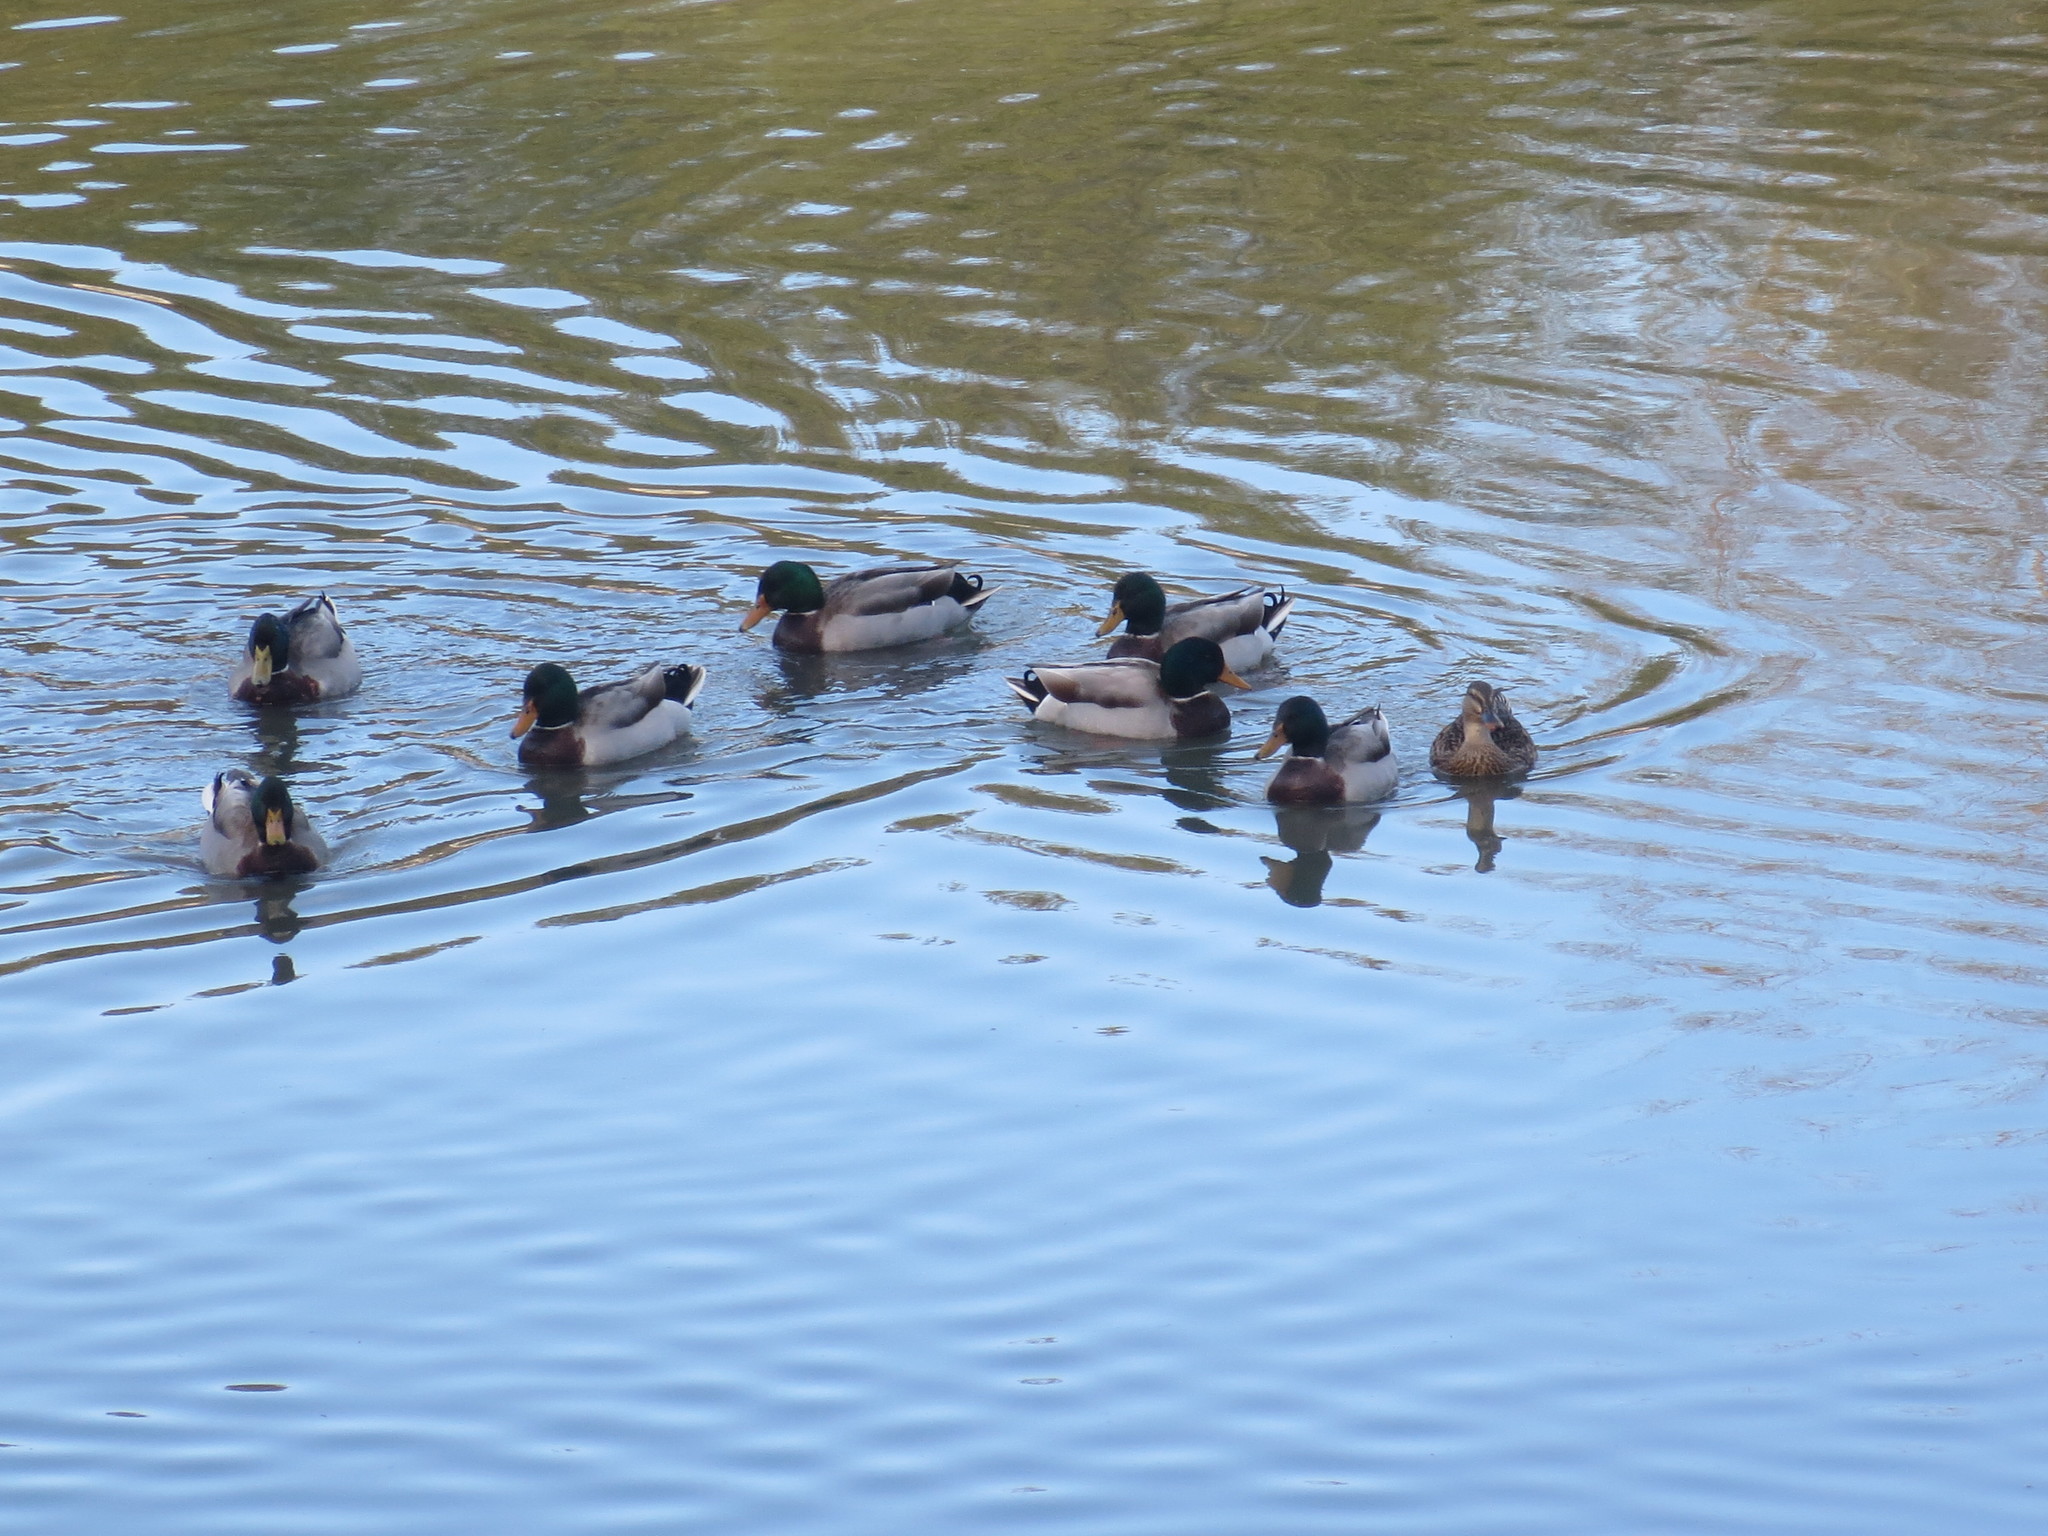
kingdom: Animalia
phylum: Chordata
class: Aves
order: Anseriformes
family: Anatidae
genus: Anas
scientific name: Anas platyrhynchos
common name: Mallard
